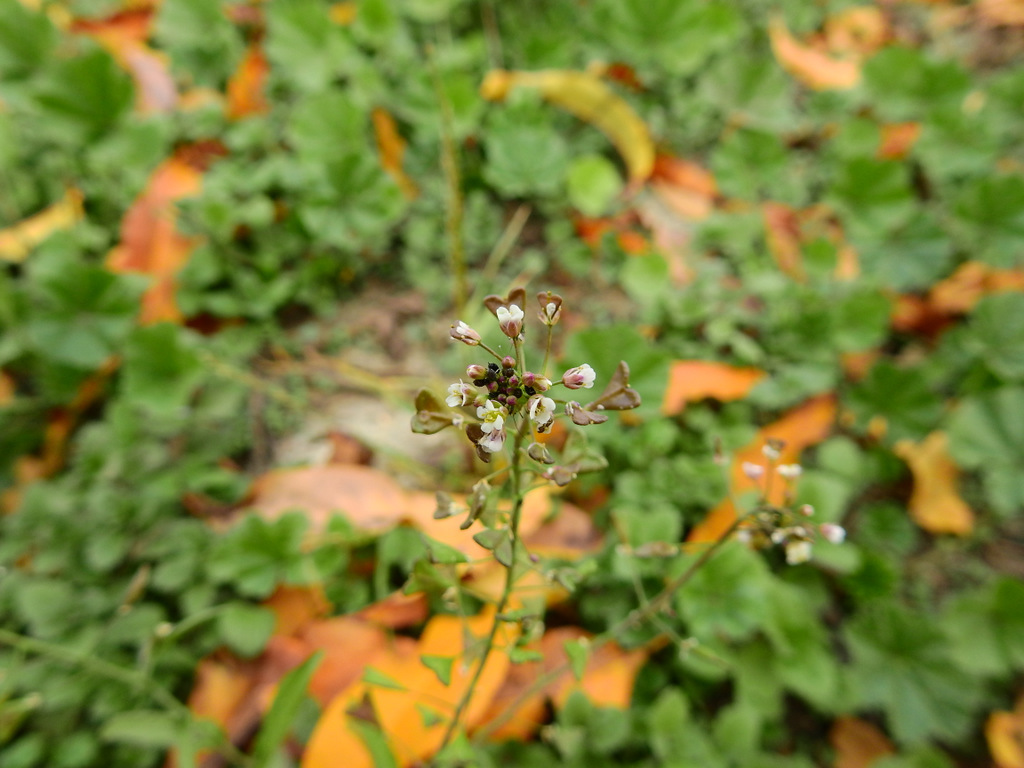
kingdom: Plantae
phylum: Tracheophyta
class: Magnoliopsida
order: Brassicales
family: Brassicaceae
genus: Capsella
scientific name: Capsella bursa-pastoris
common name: Shepherd's purse
